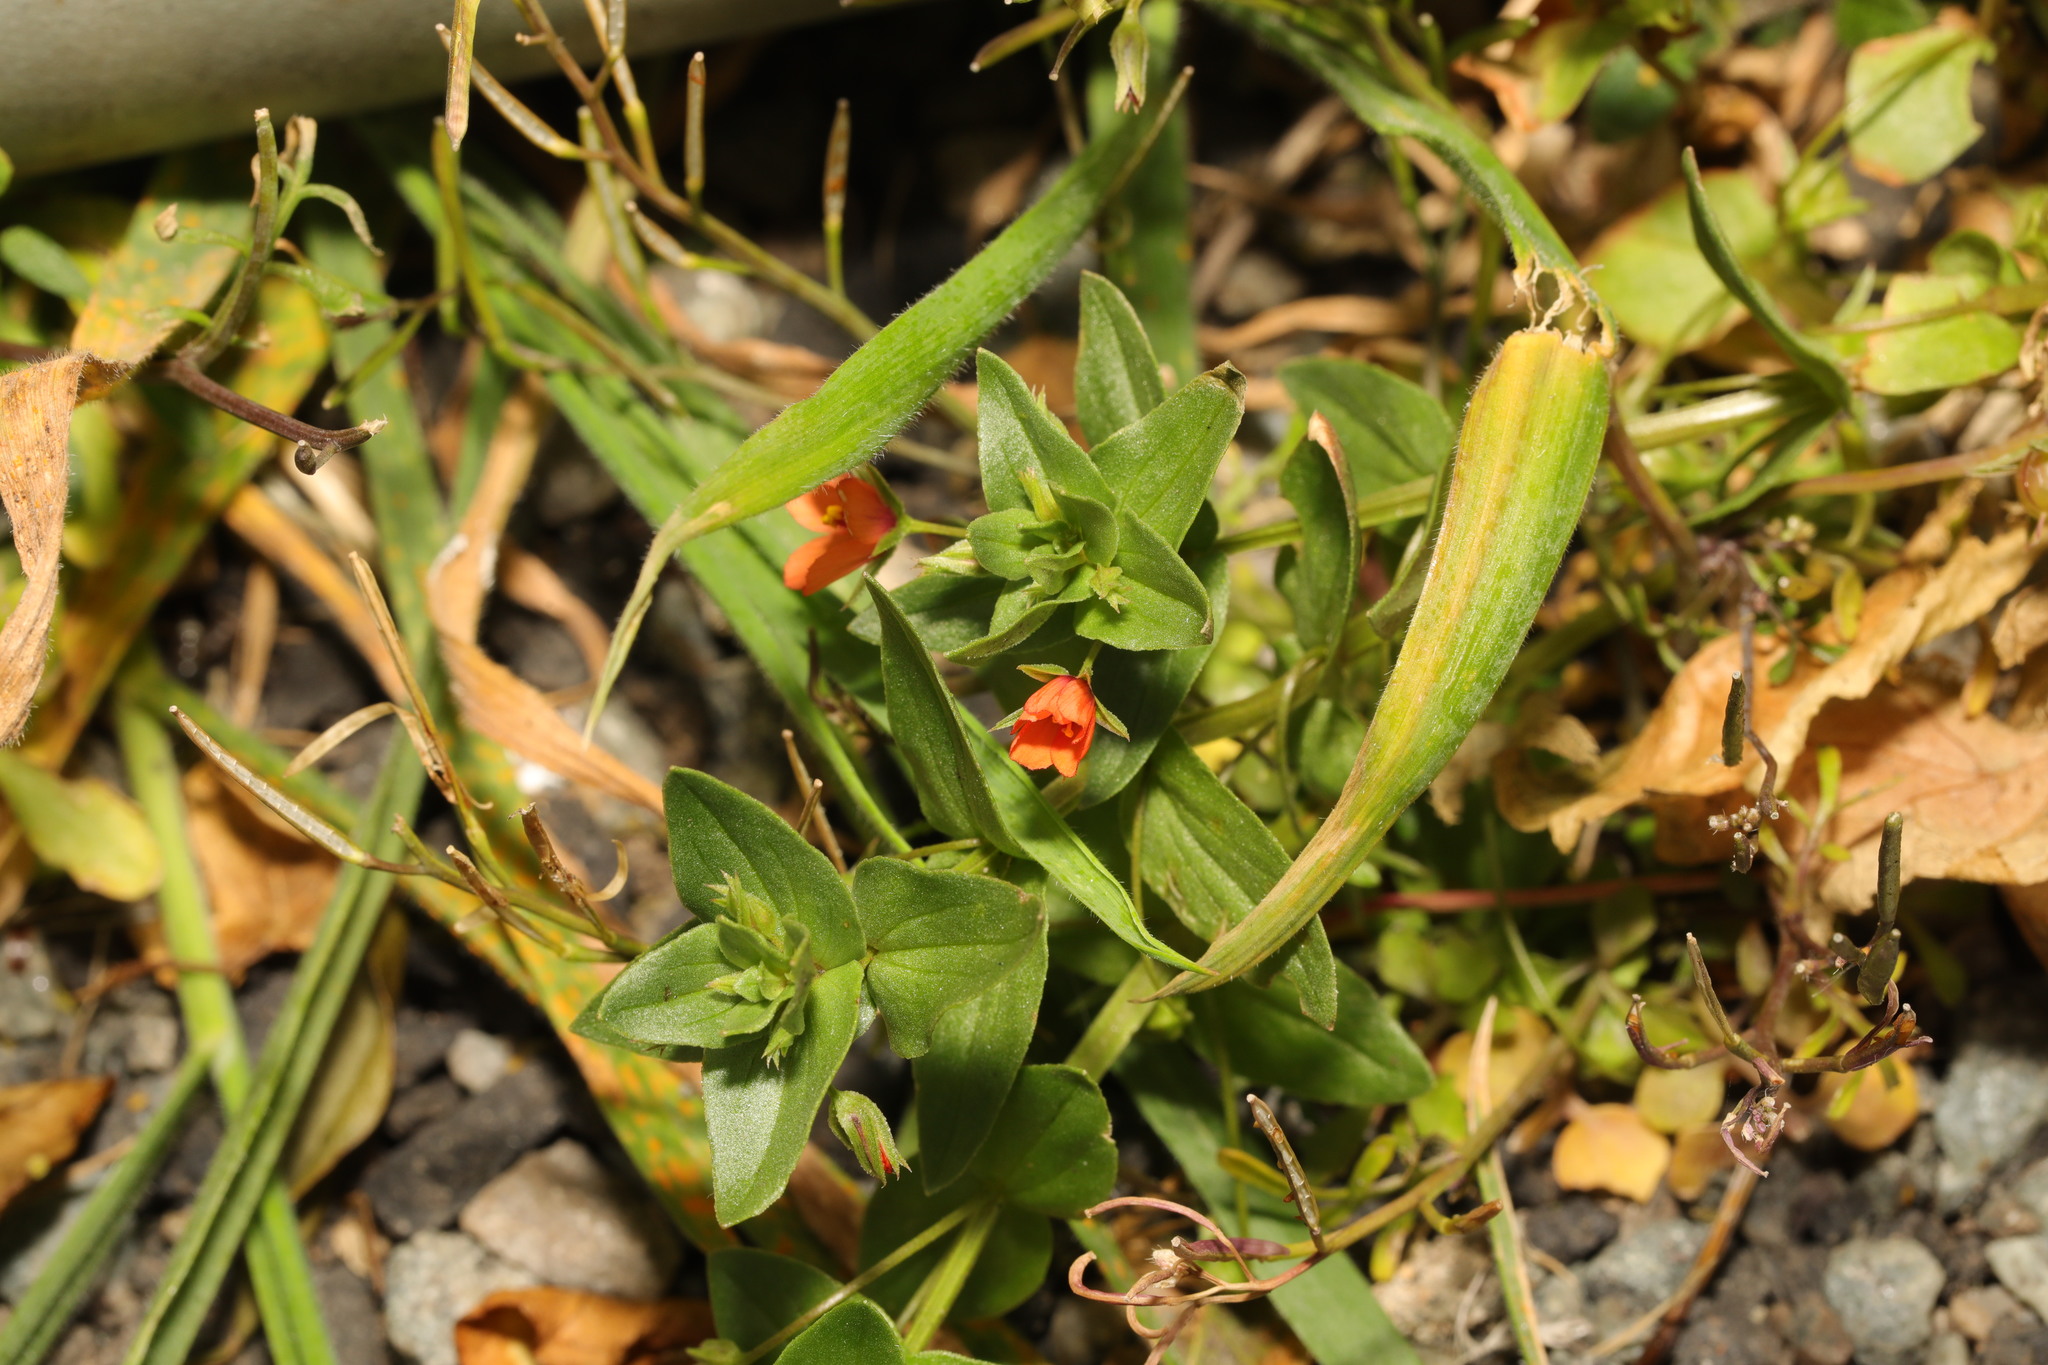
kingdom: Plantae
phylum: Tracheophyta
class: Magnoliopsida
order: Ericales
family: Primulaceae
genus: Lysimachia
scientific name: Lysimachia arvensis
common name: Scarlet pimpernel
